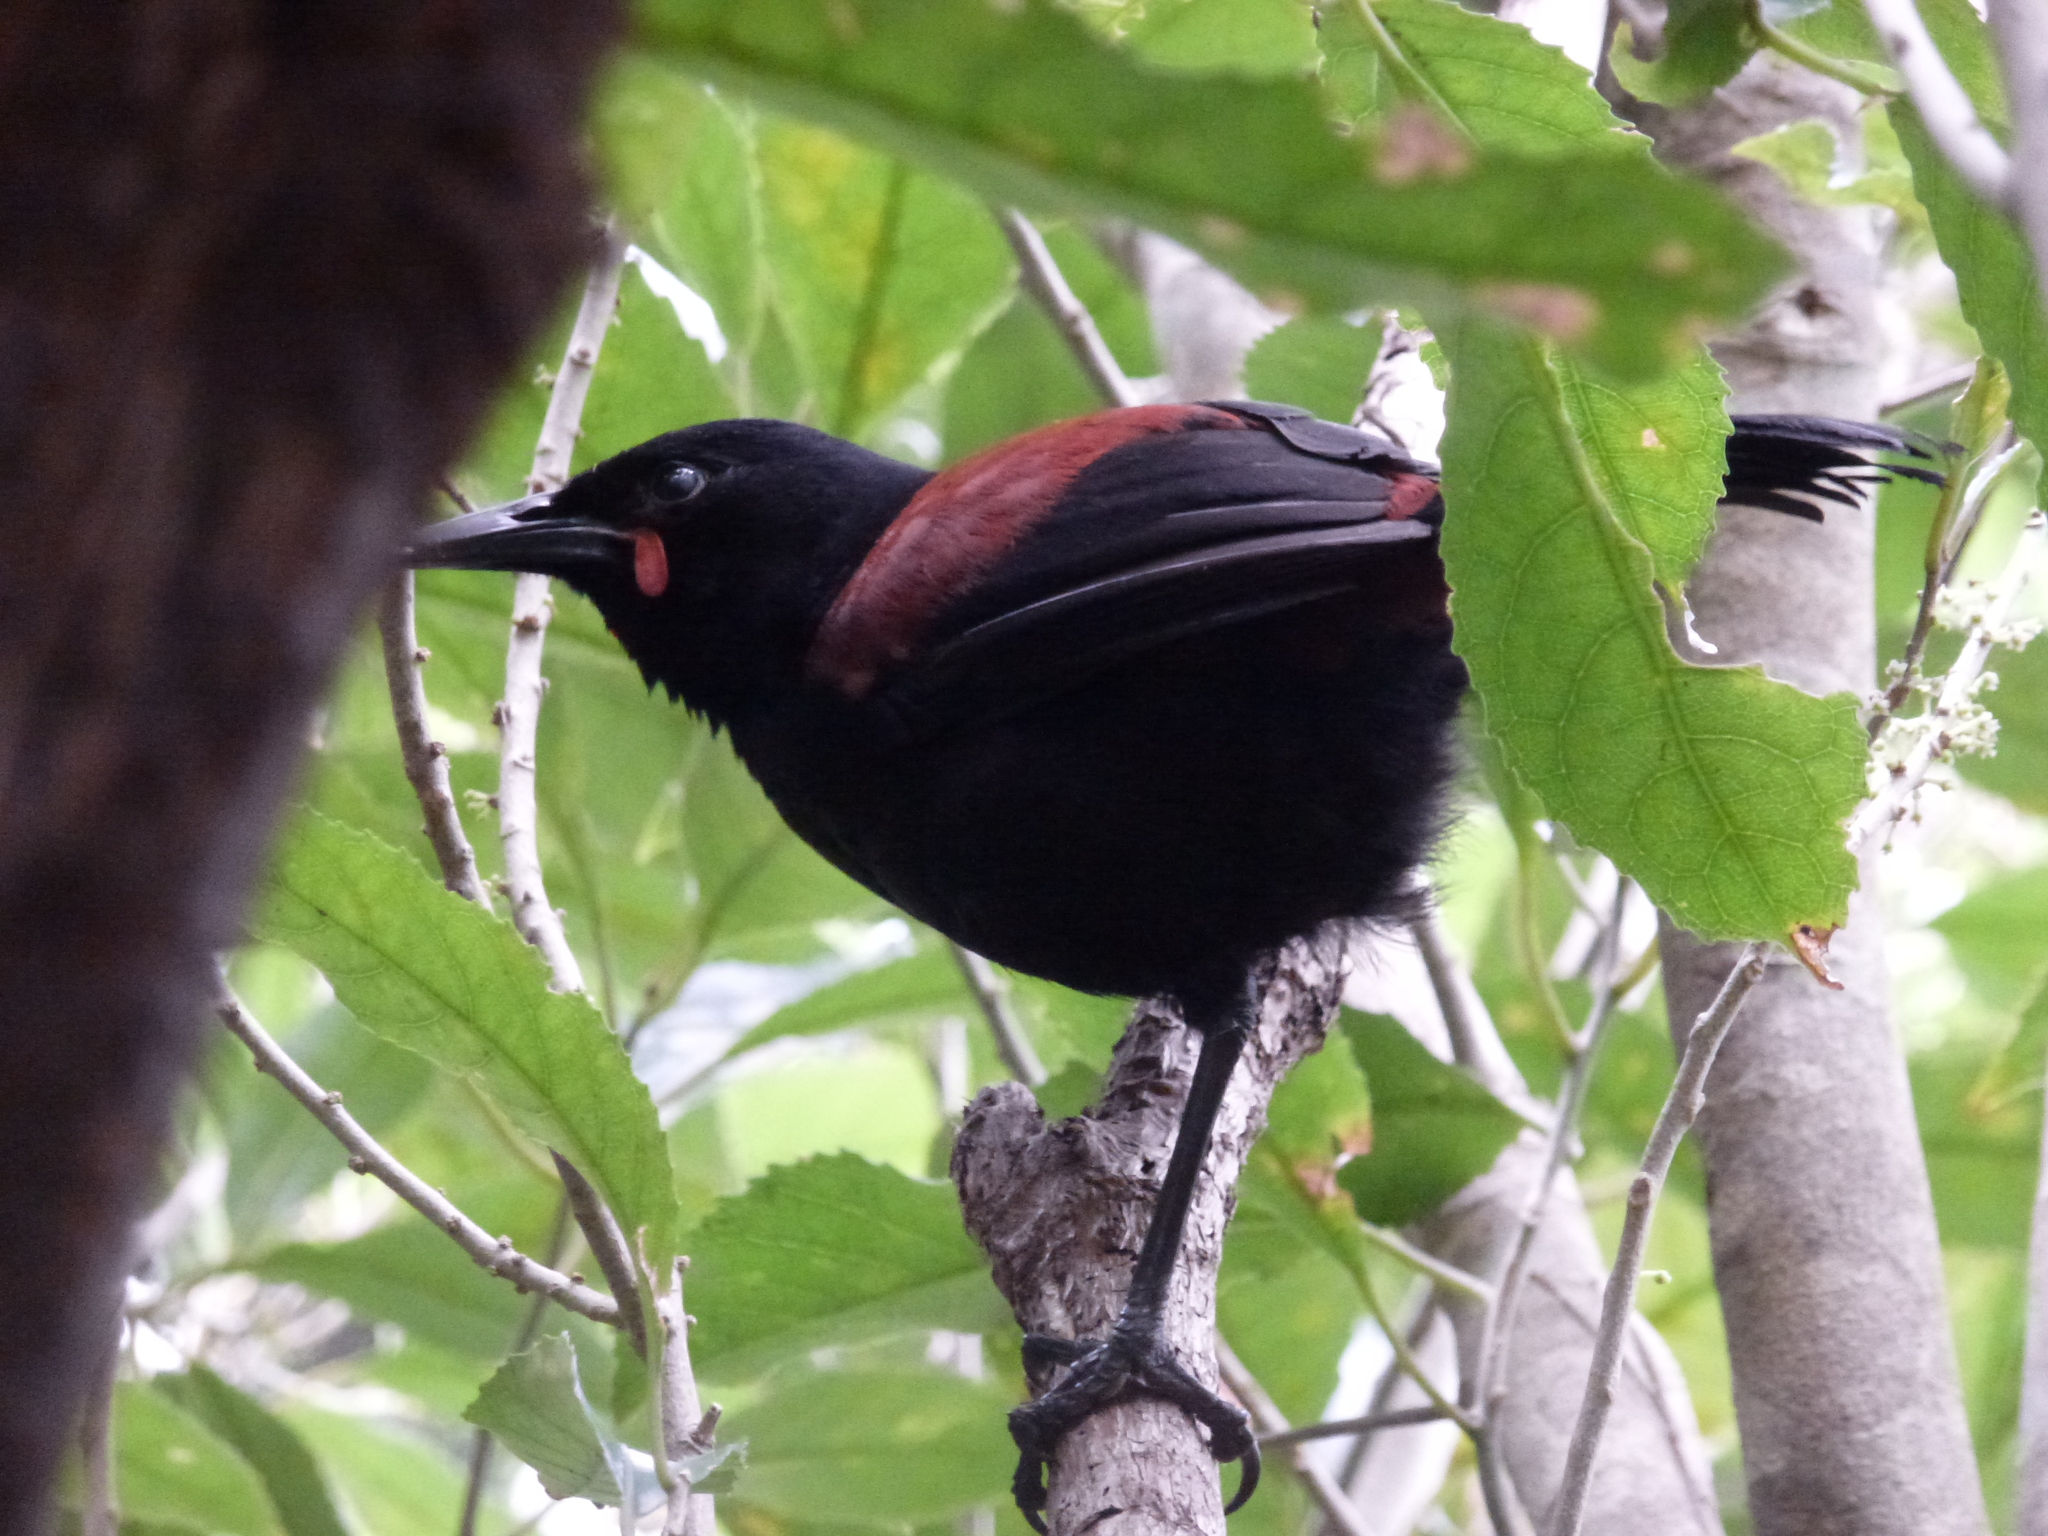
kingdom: Animalia
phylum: Chordata
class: Aves
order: Passeriformes
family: Callaeatidae
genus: Philesturnus
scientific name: Philesturnus carunculatus
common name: South island saddleback
